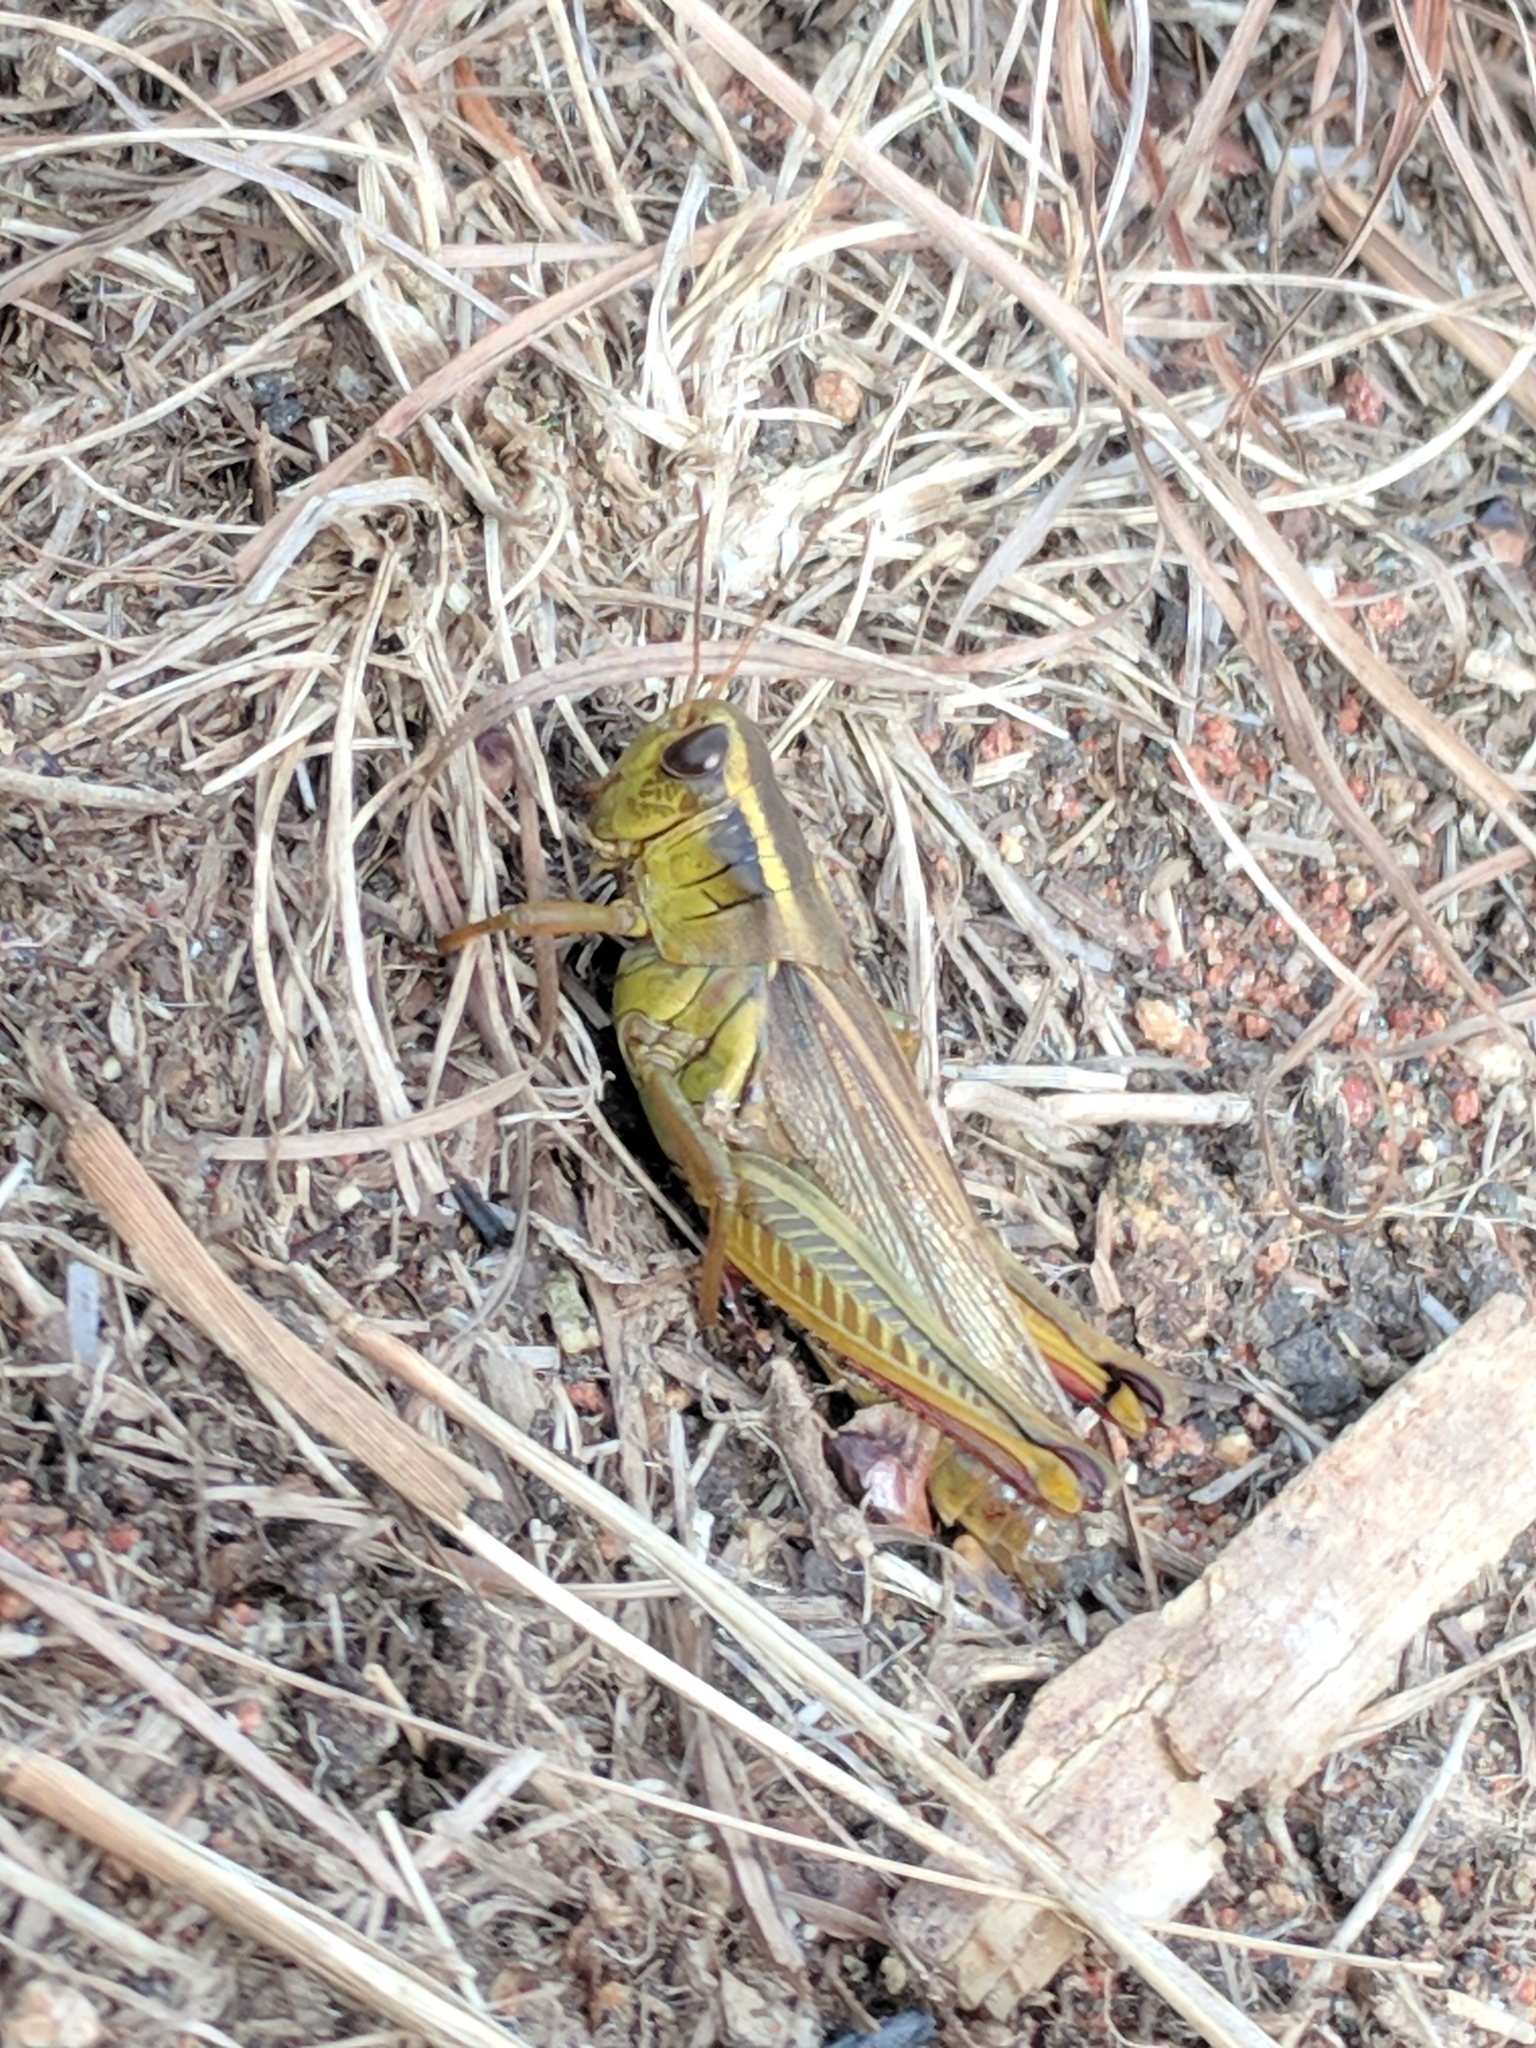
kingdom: Animalia
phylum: Arthropoda
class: Insecta
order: Orthoptera
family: Acrididae
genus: Melanoplus
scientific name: Melanoplus bivittatus
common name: Two-striped grasshopper
